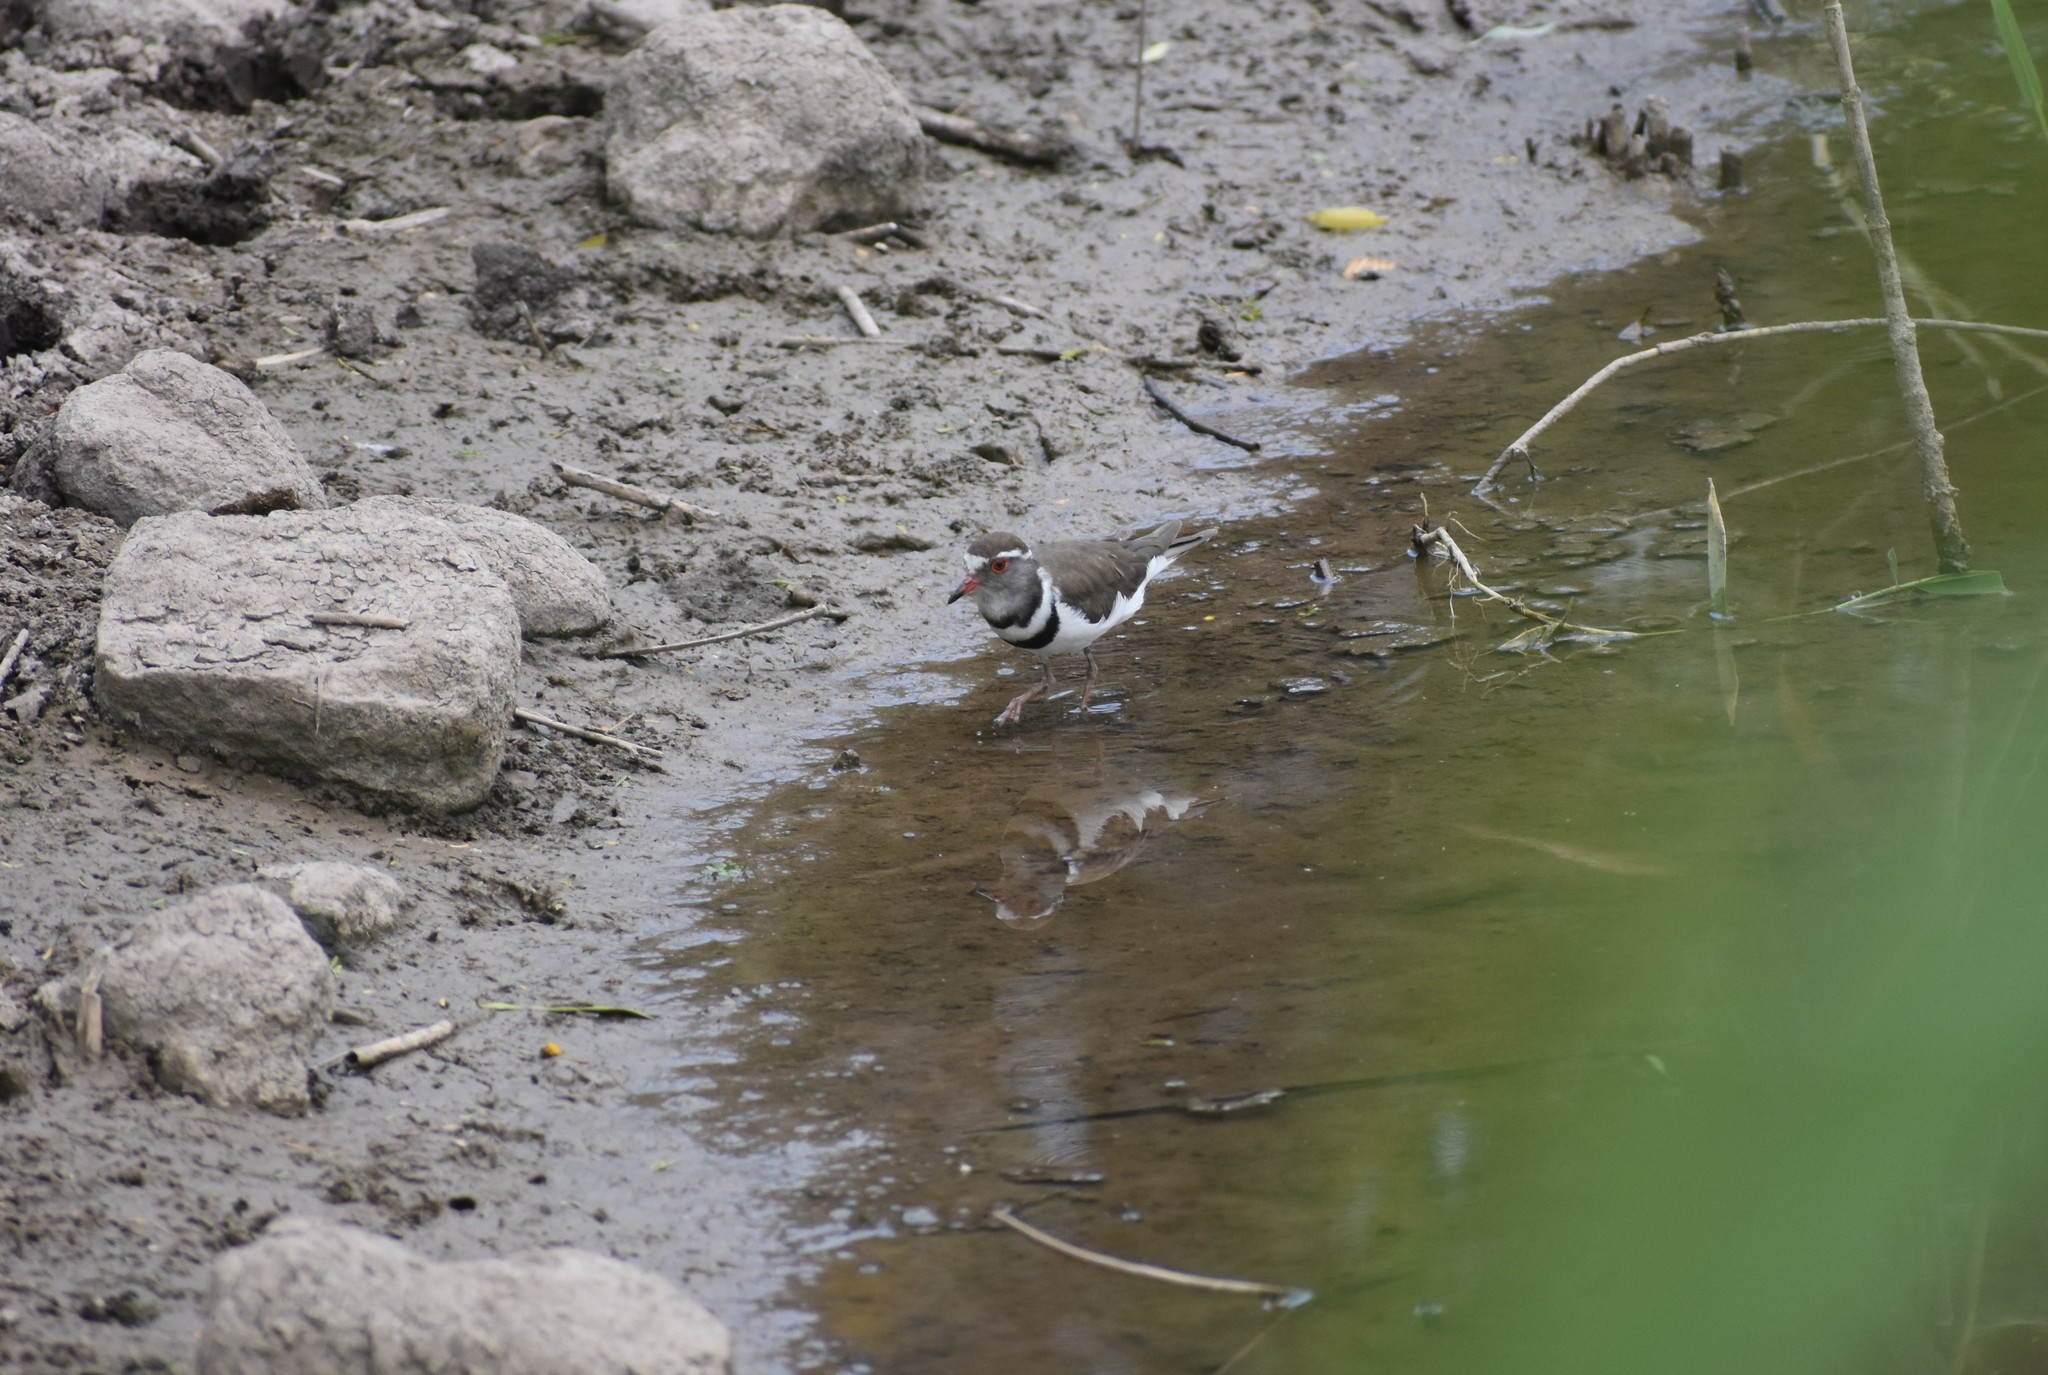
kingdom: Animalia
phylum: Chordata
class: Aves
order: Charadriiformes
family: Charadriidae
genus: Charadrius
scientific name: Charadrius tricollaris
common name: Three-banded plover
